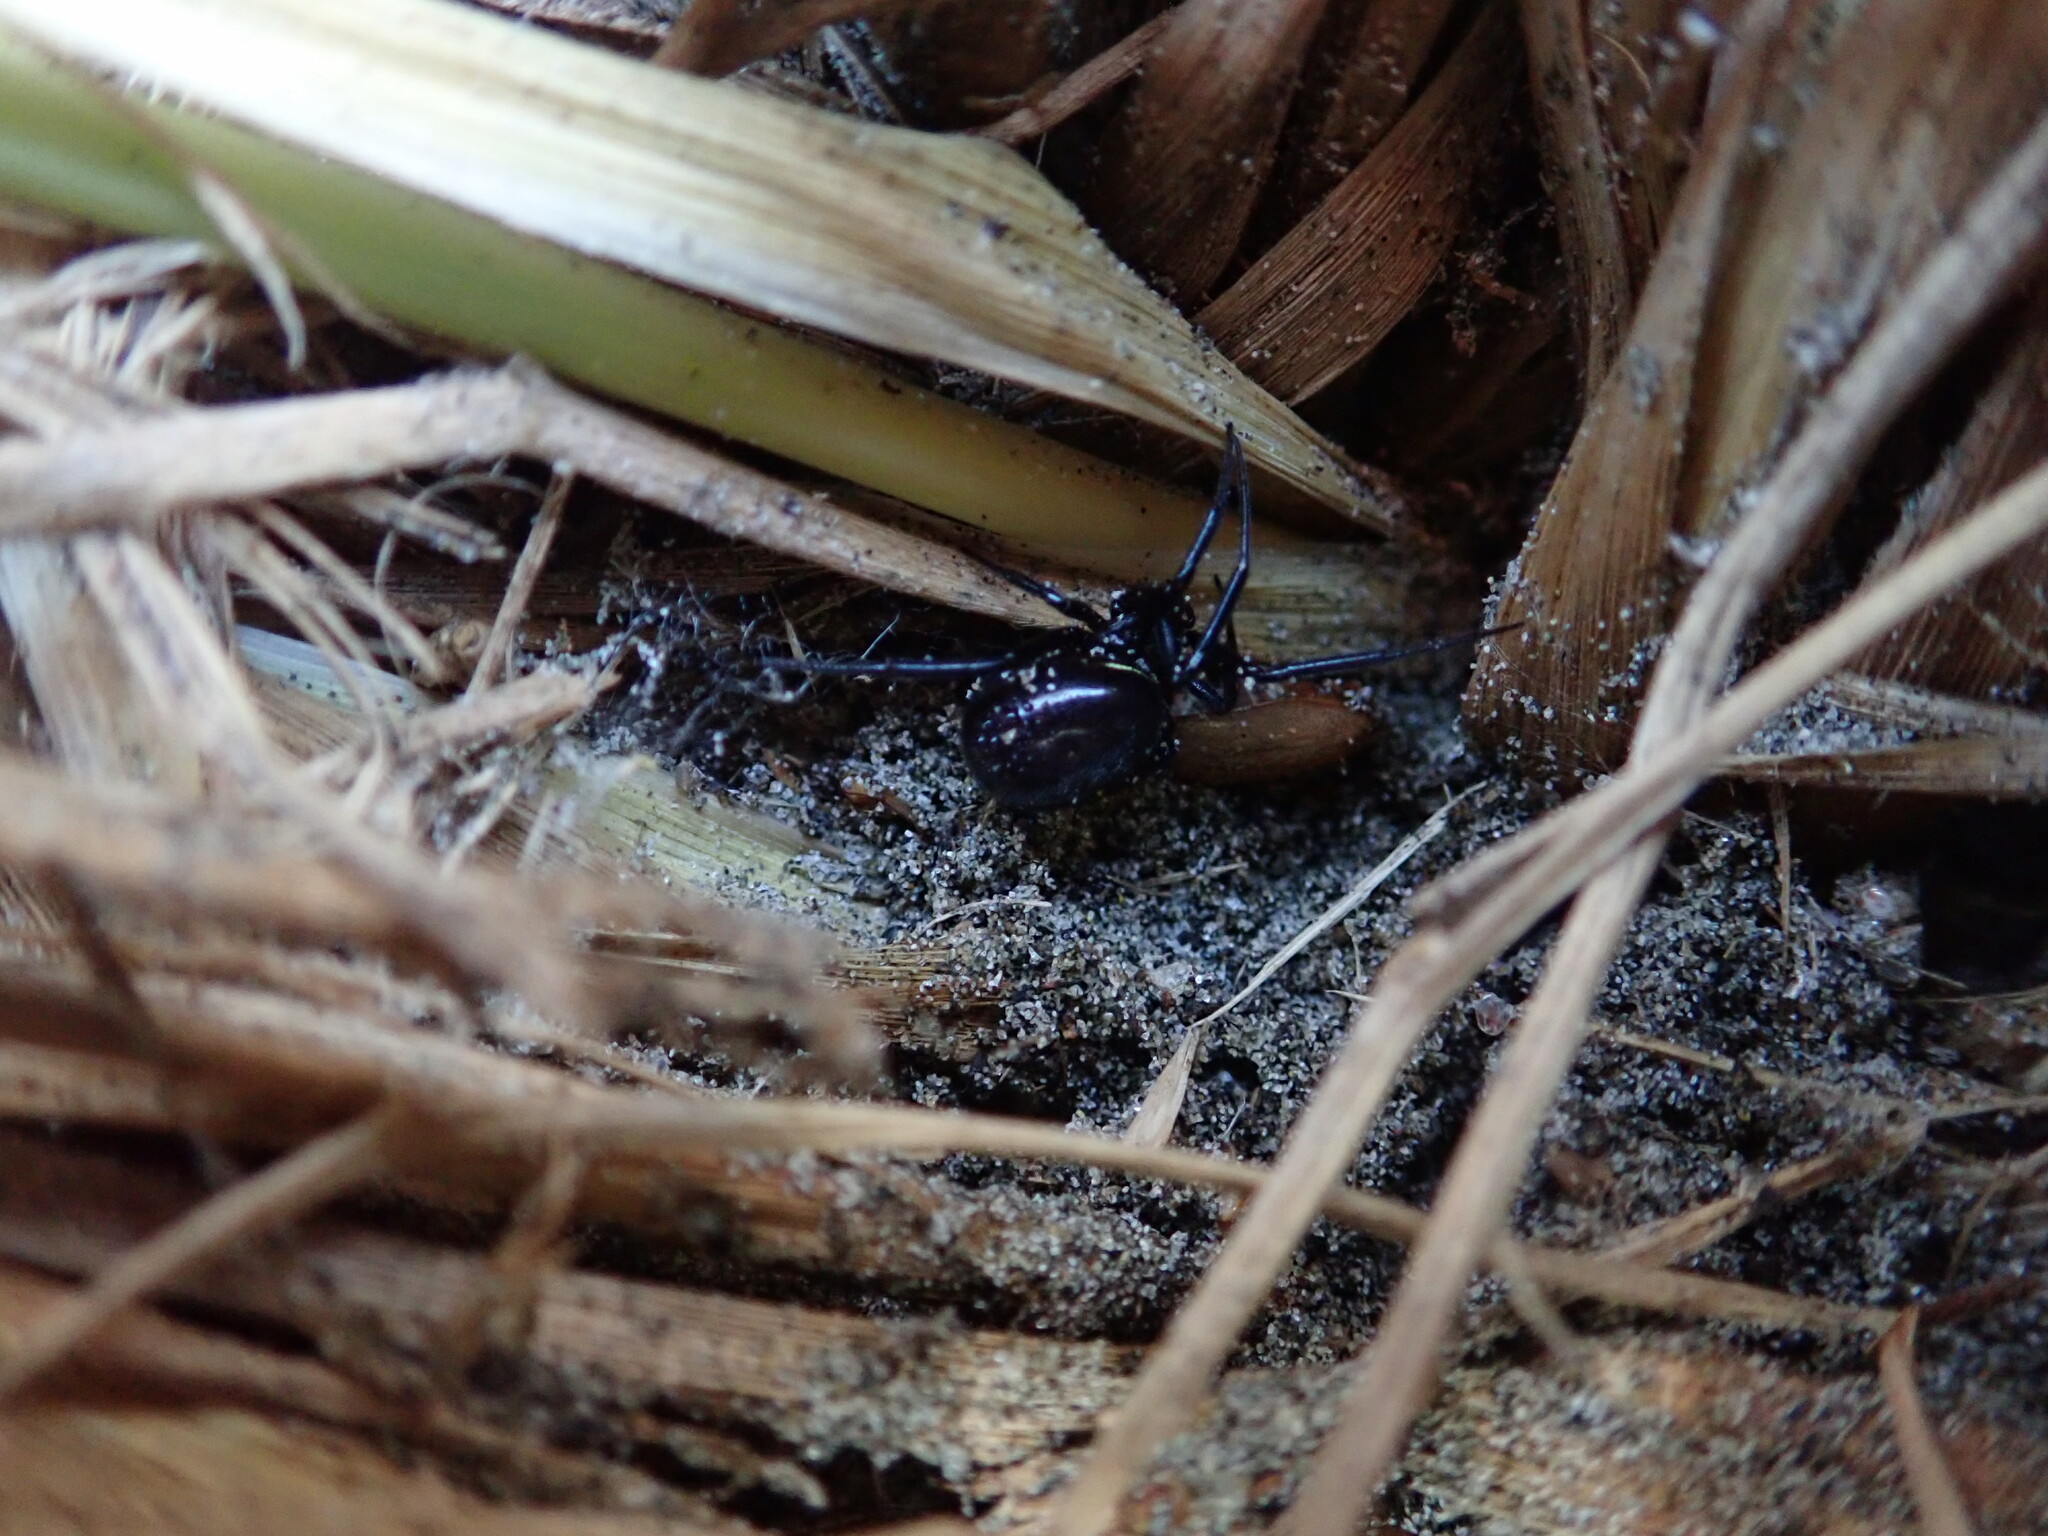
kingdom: Animalia
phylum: Arthropoda
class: Arachnida
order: Araneae
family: Theridiidae
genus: Steatoda
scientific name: Steatoda capensis
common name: Cobweb weaver
